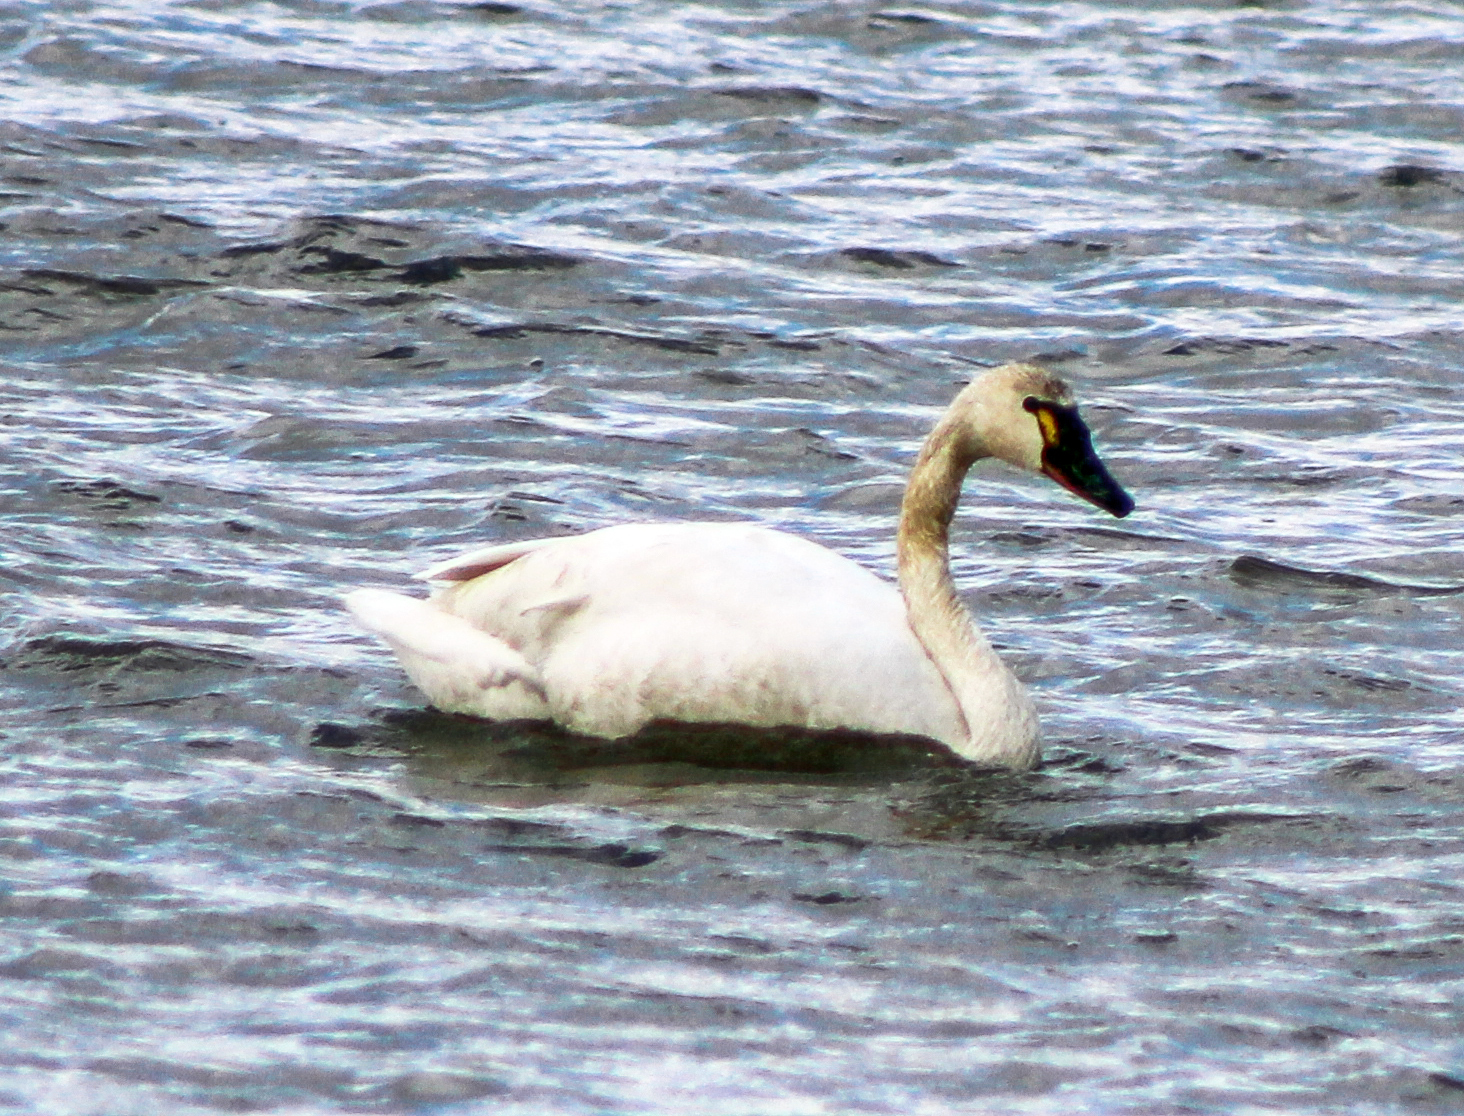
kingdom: Animalia
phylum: Chordata
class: Aves
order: Anseriformes
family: Anatidae
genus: Cygnus
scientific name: Cygnus columbianus
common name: Tundra swan
